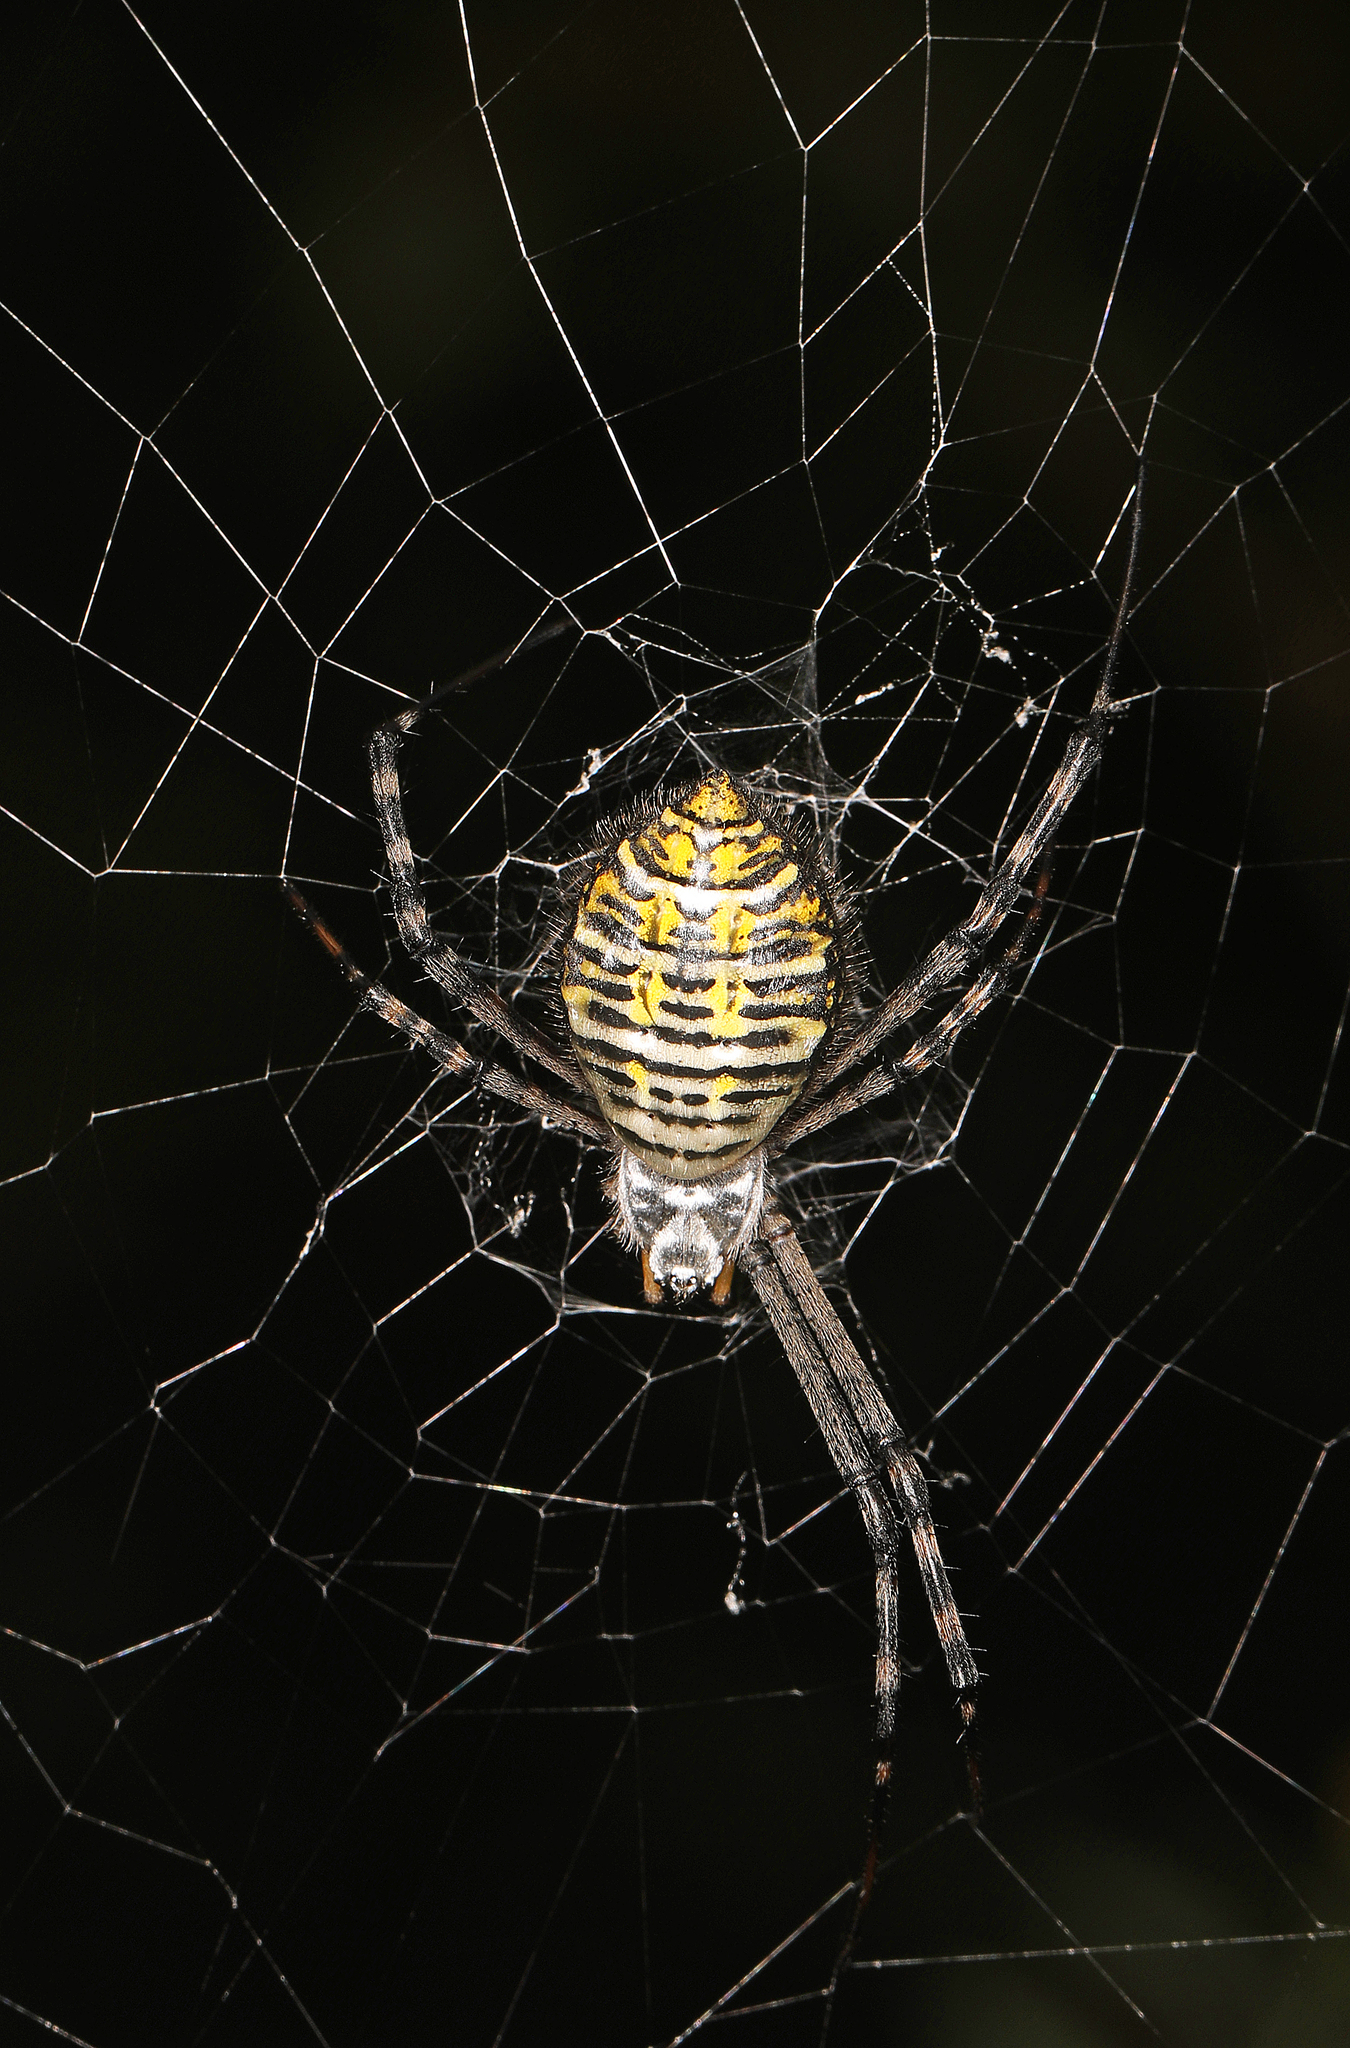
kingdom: Animalia
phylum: Arthropoda
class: Arachnida
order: Araneae
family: Araneidae
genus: Argiope
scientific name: Argiope trifasciata
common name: Banded garden spider
